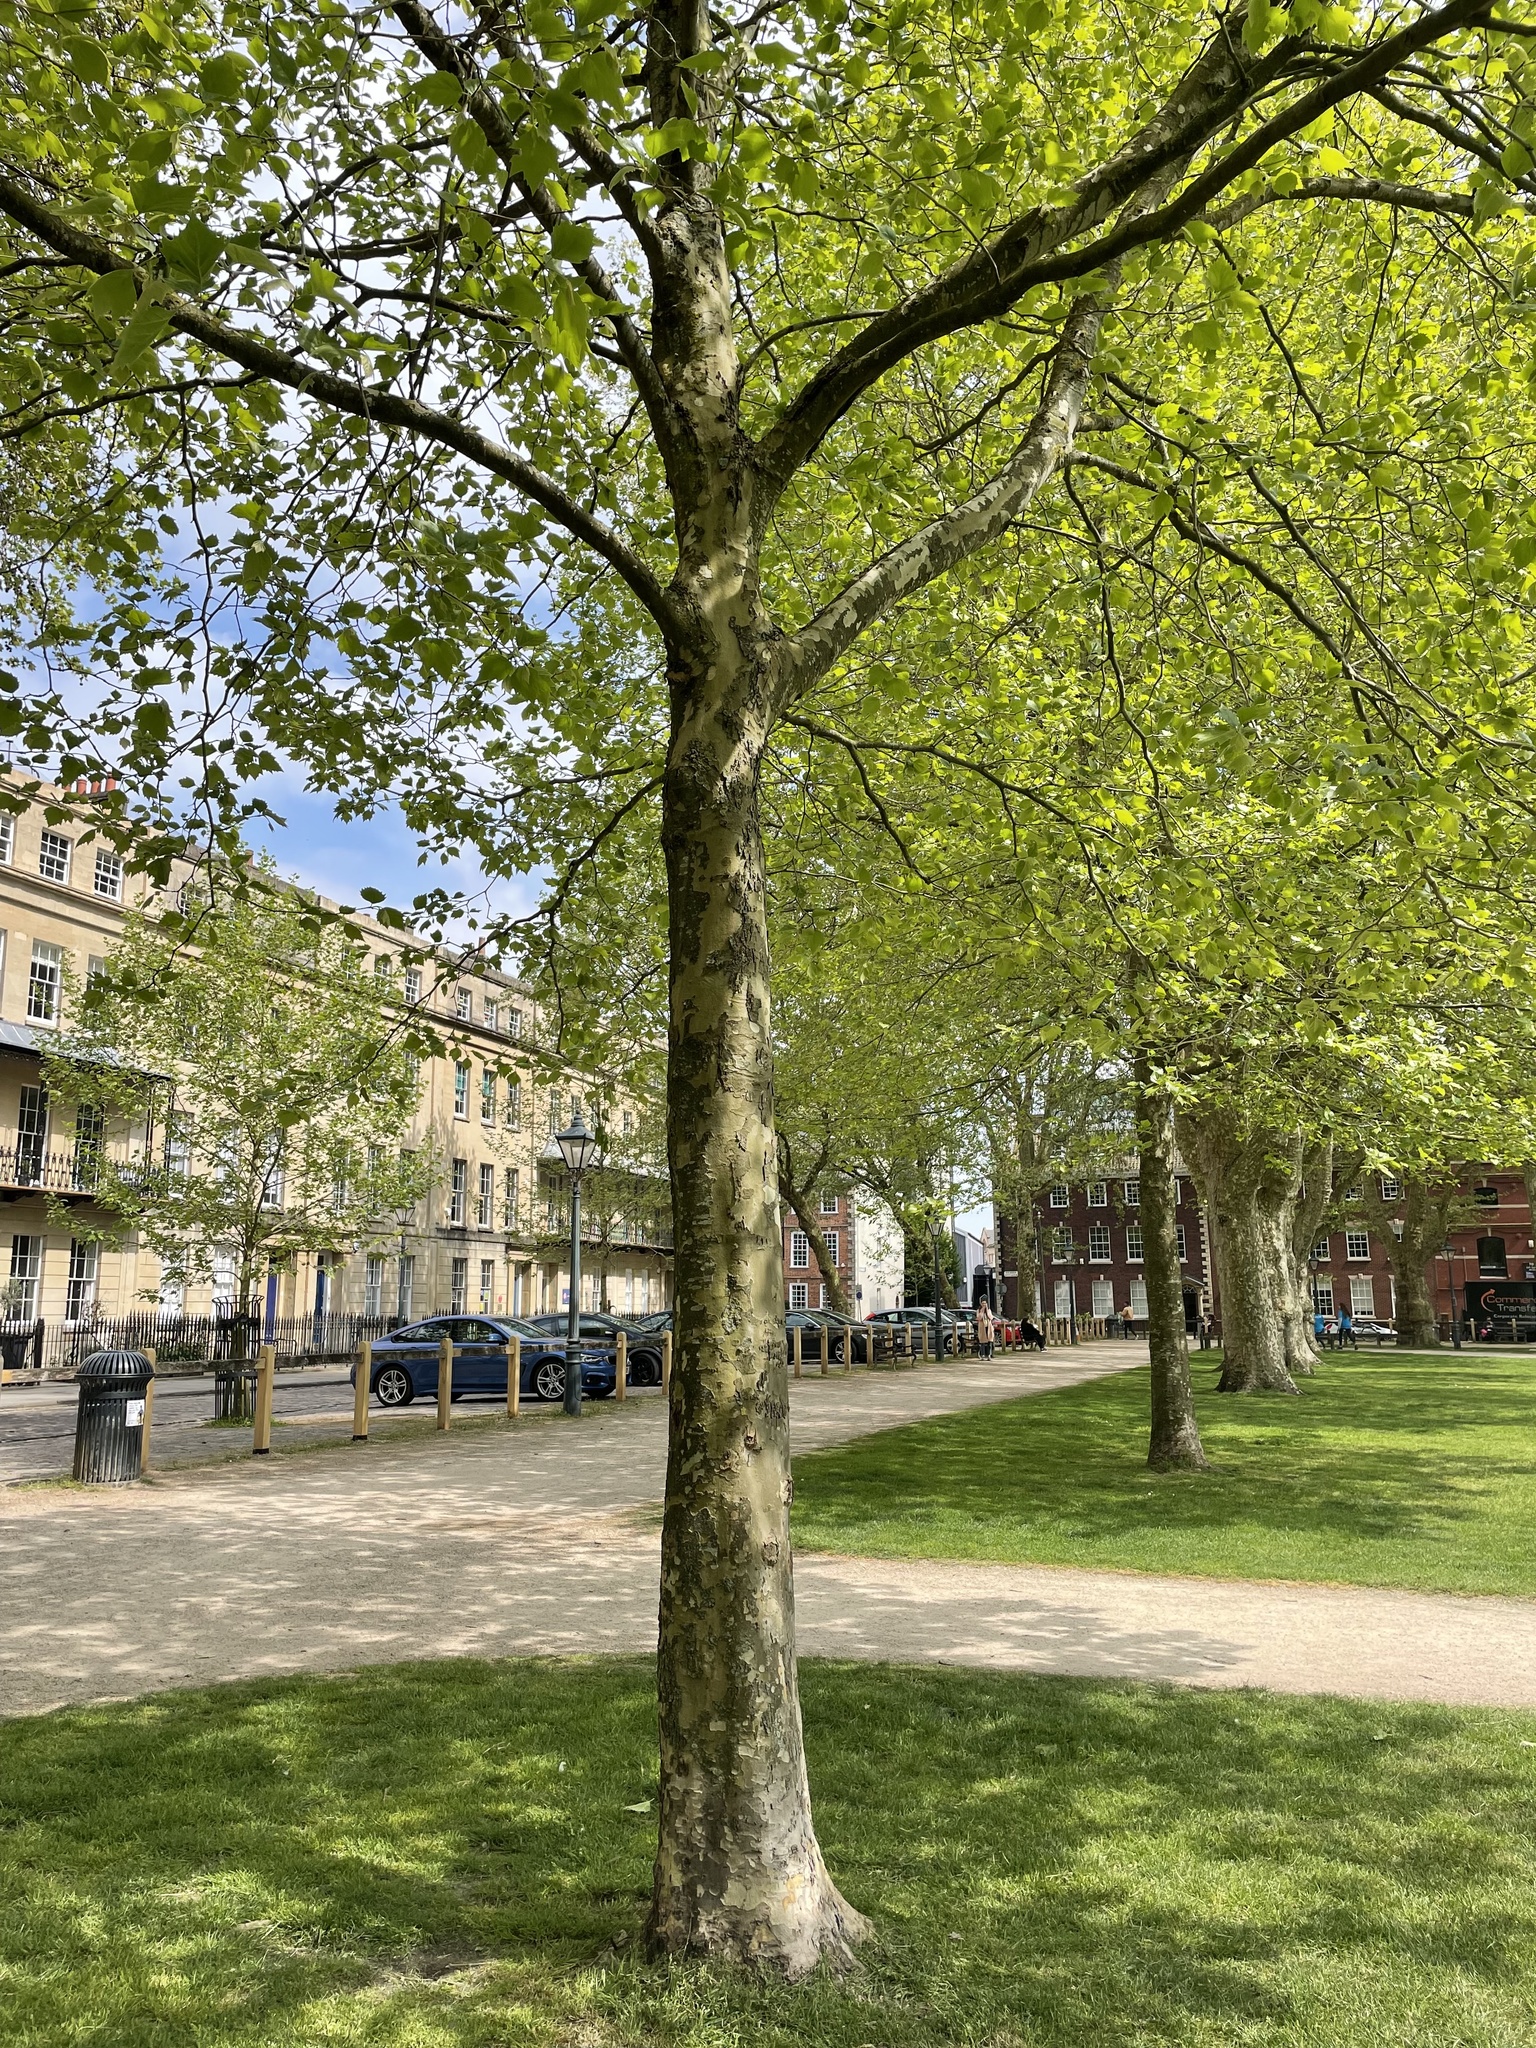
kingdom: Plantae
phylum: Tracheophyta
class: Magnoliopsida
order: Fagales
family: Betulaceae
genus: Betula
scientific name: Betula pendula
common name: Silver birch
